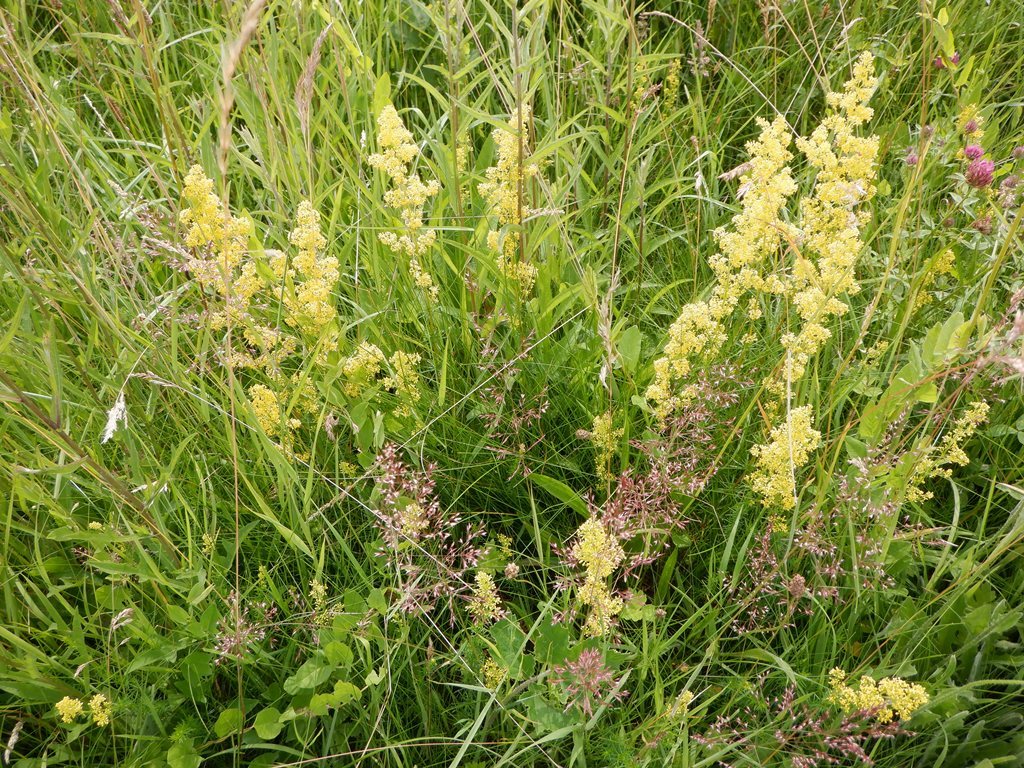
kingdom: Plantae
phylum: Tracheophyta
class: Magnoliopsida
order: Gentianales
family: Rubiaceae
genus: Galium
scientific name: Galium verum
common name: Lady's bedstraw
